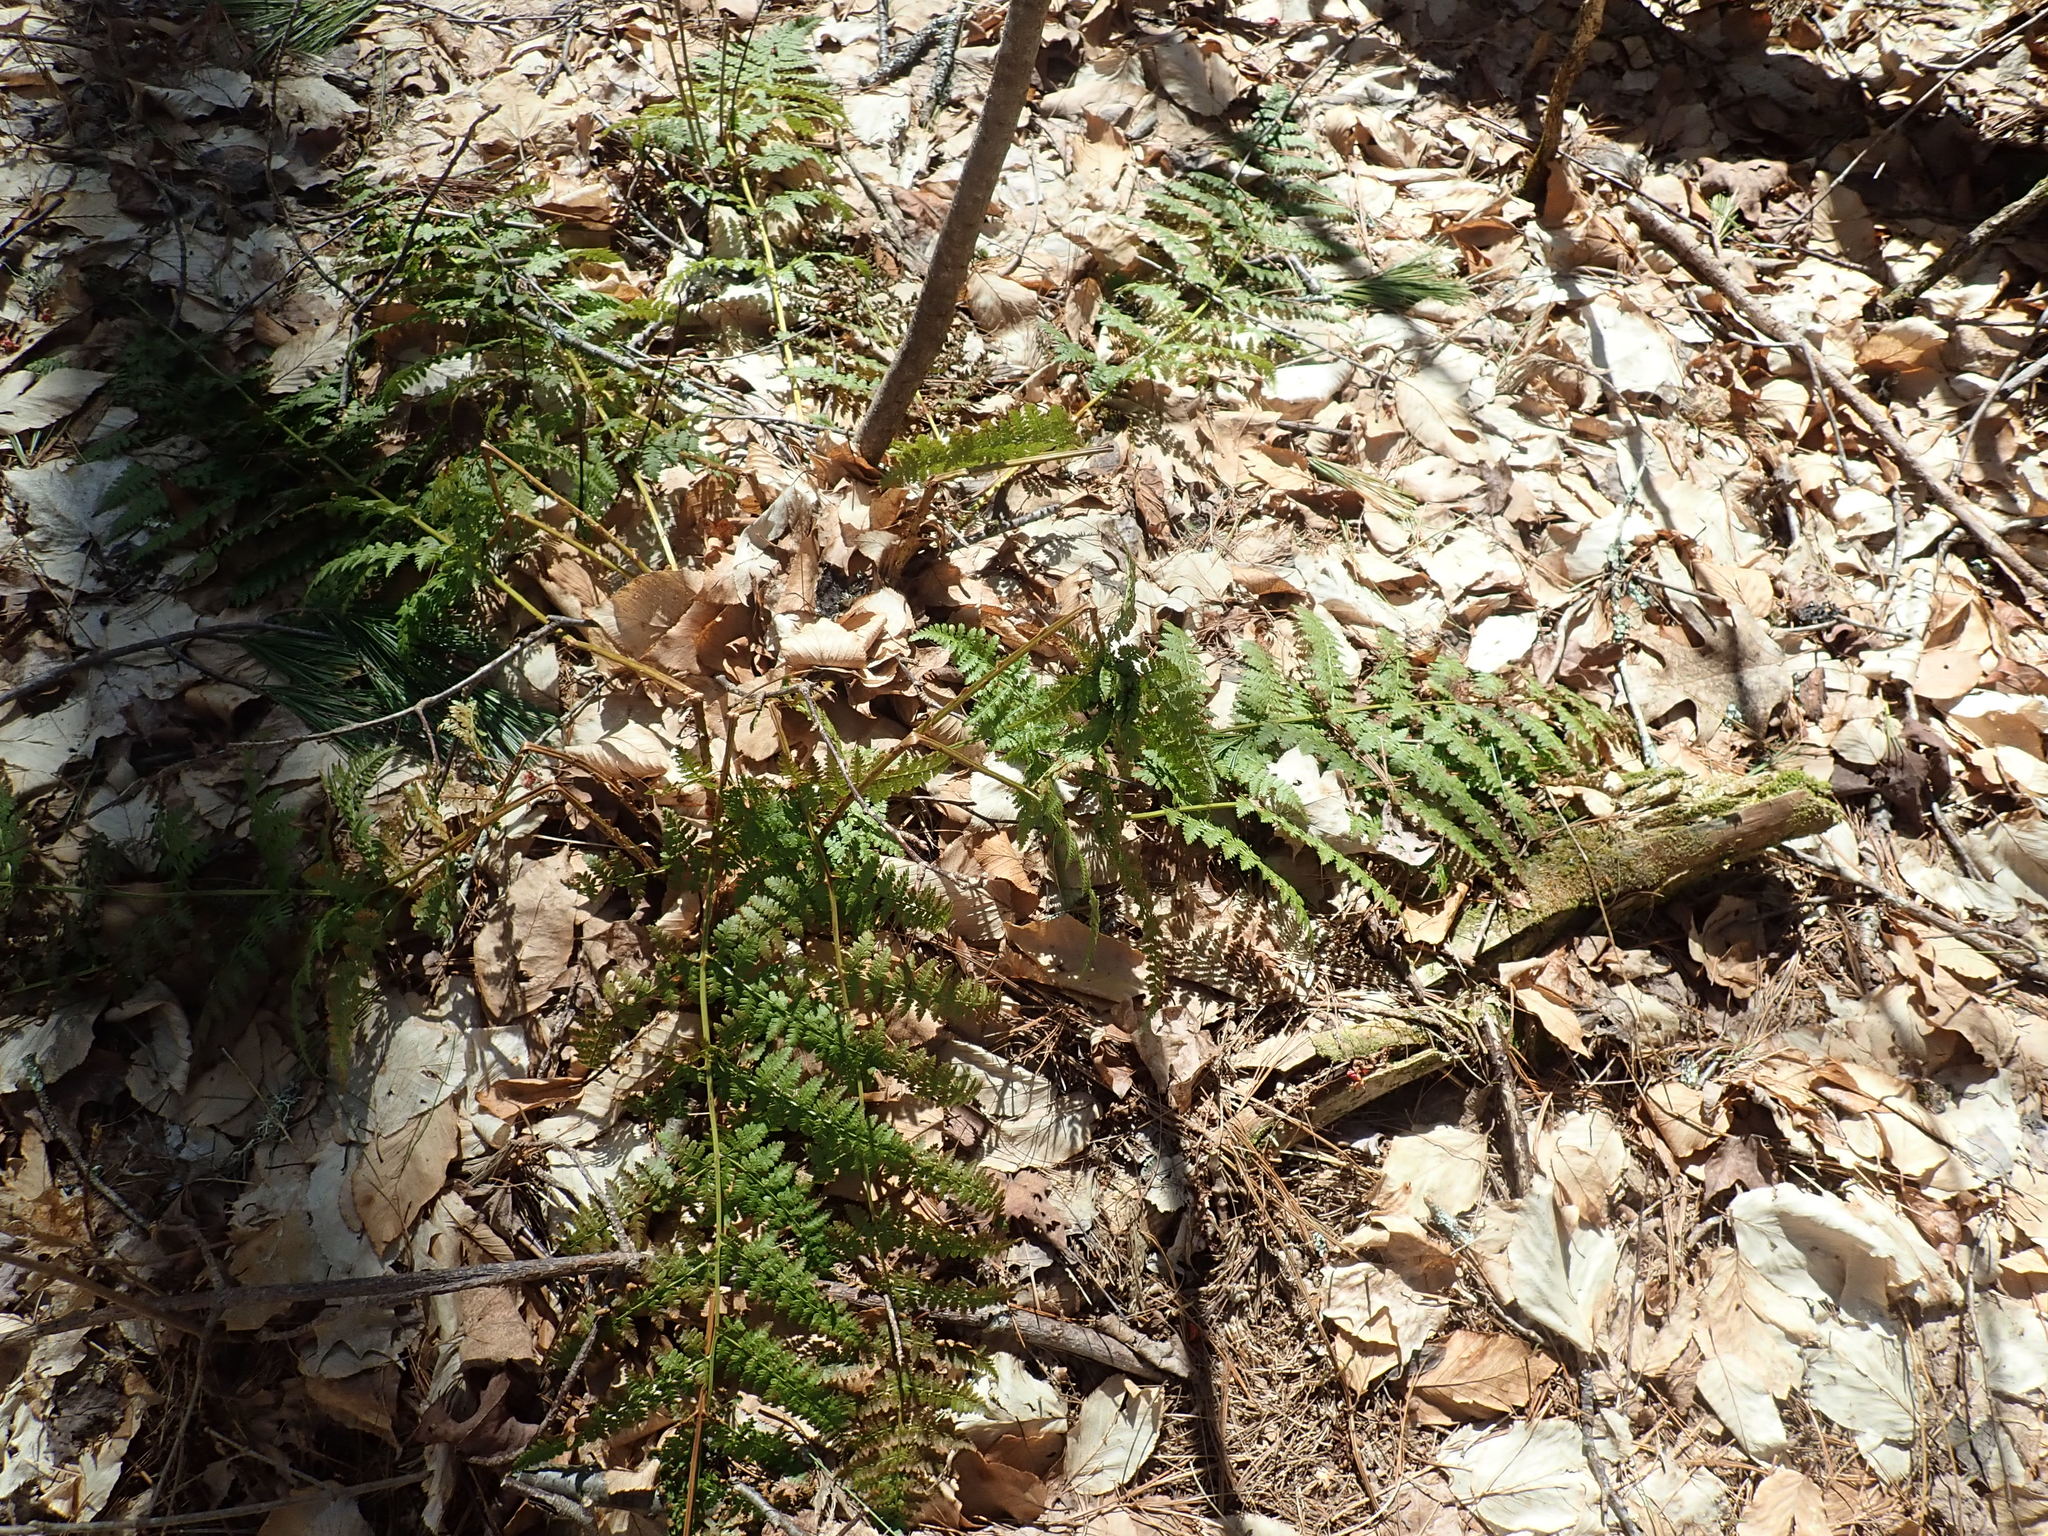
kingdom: Plantae
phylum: Tracheophyta
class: Polypodiopsida
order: Polypodiales
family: Dryopteridaceae
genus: Dryopteris
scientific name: Dryopteris intermedia
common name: Evergreen wood fern
